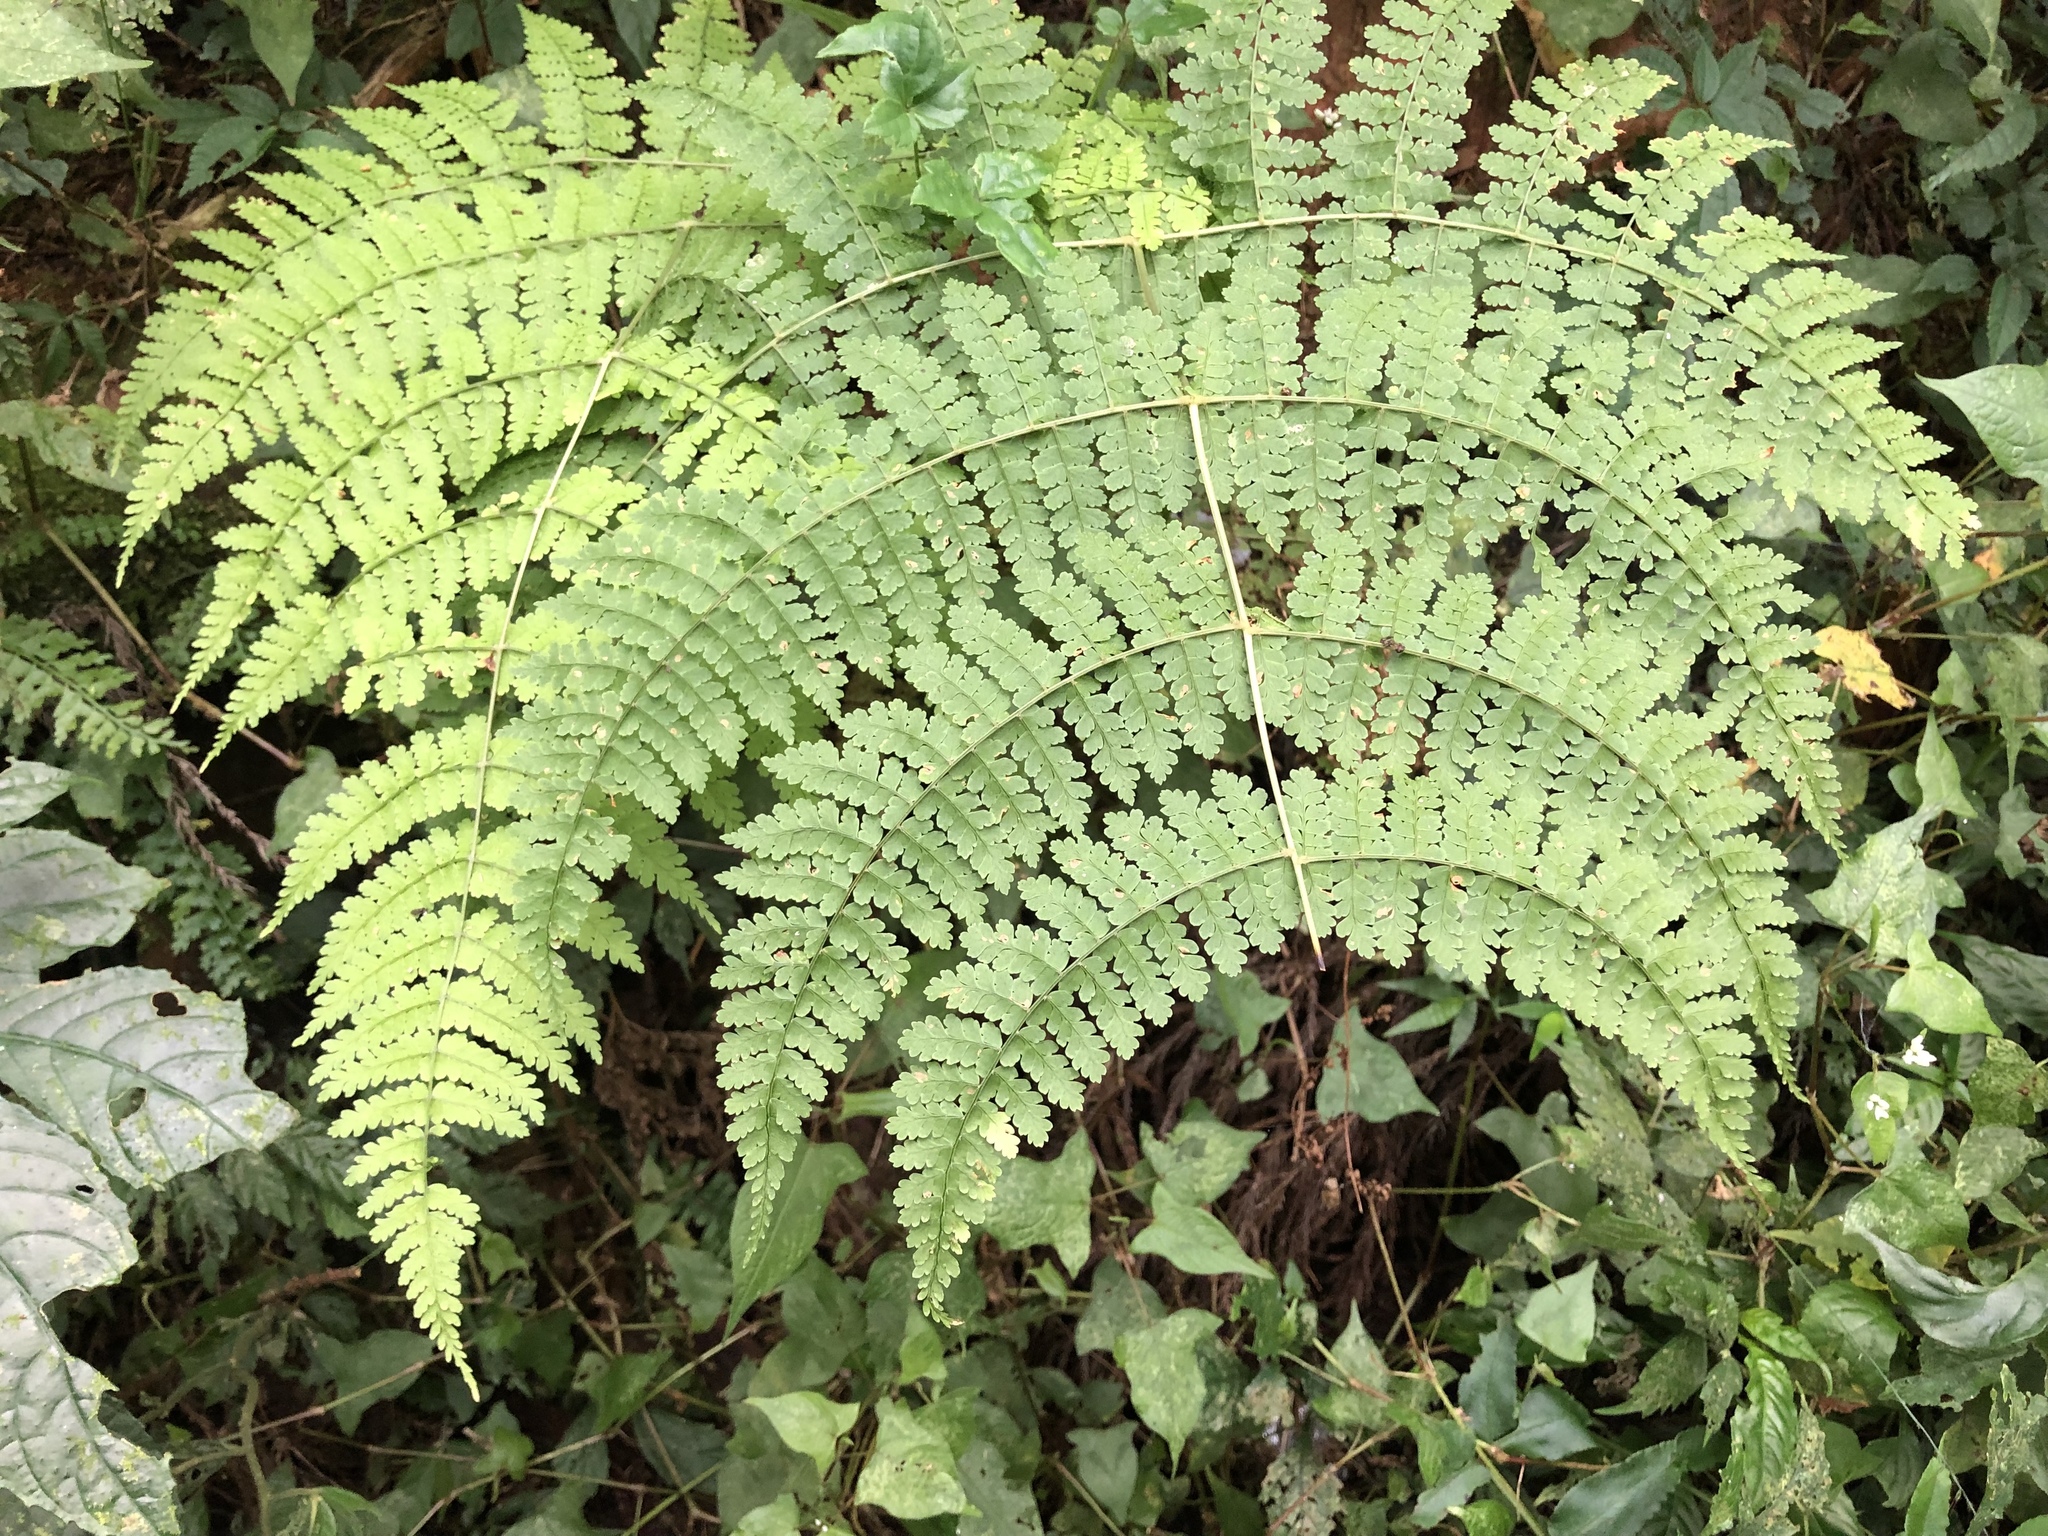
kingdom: Plantae
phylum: Tracheophyta
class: Polypodiopsida
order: Polypodiales
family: Dryopteridaceae
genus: Dryopteris
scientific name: Dryopteris paleolata
